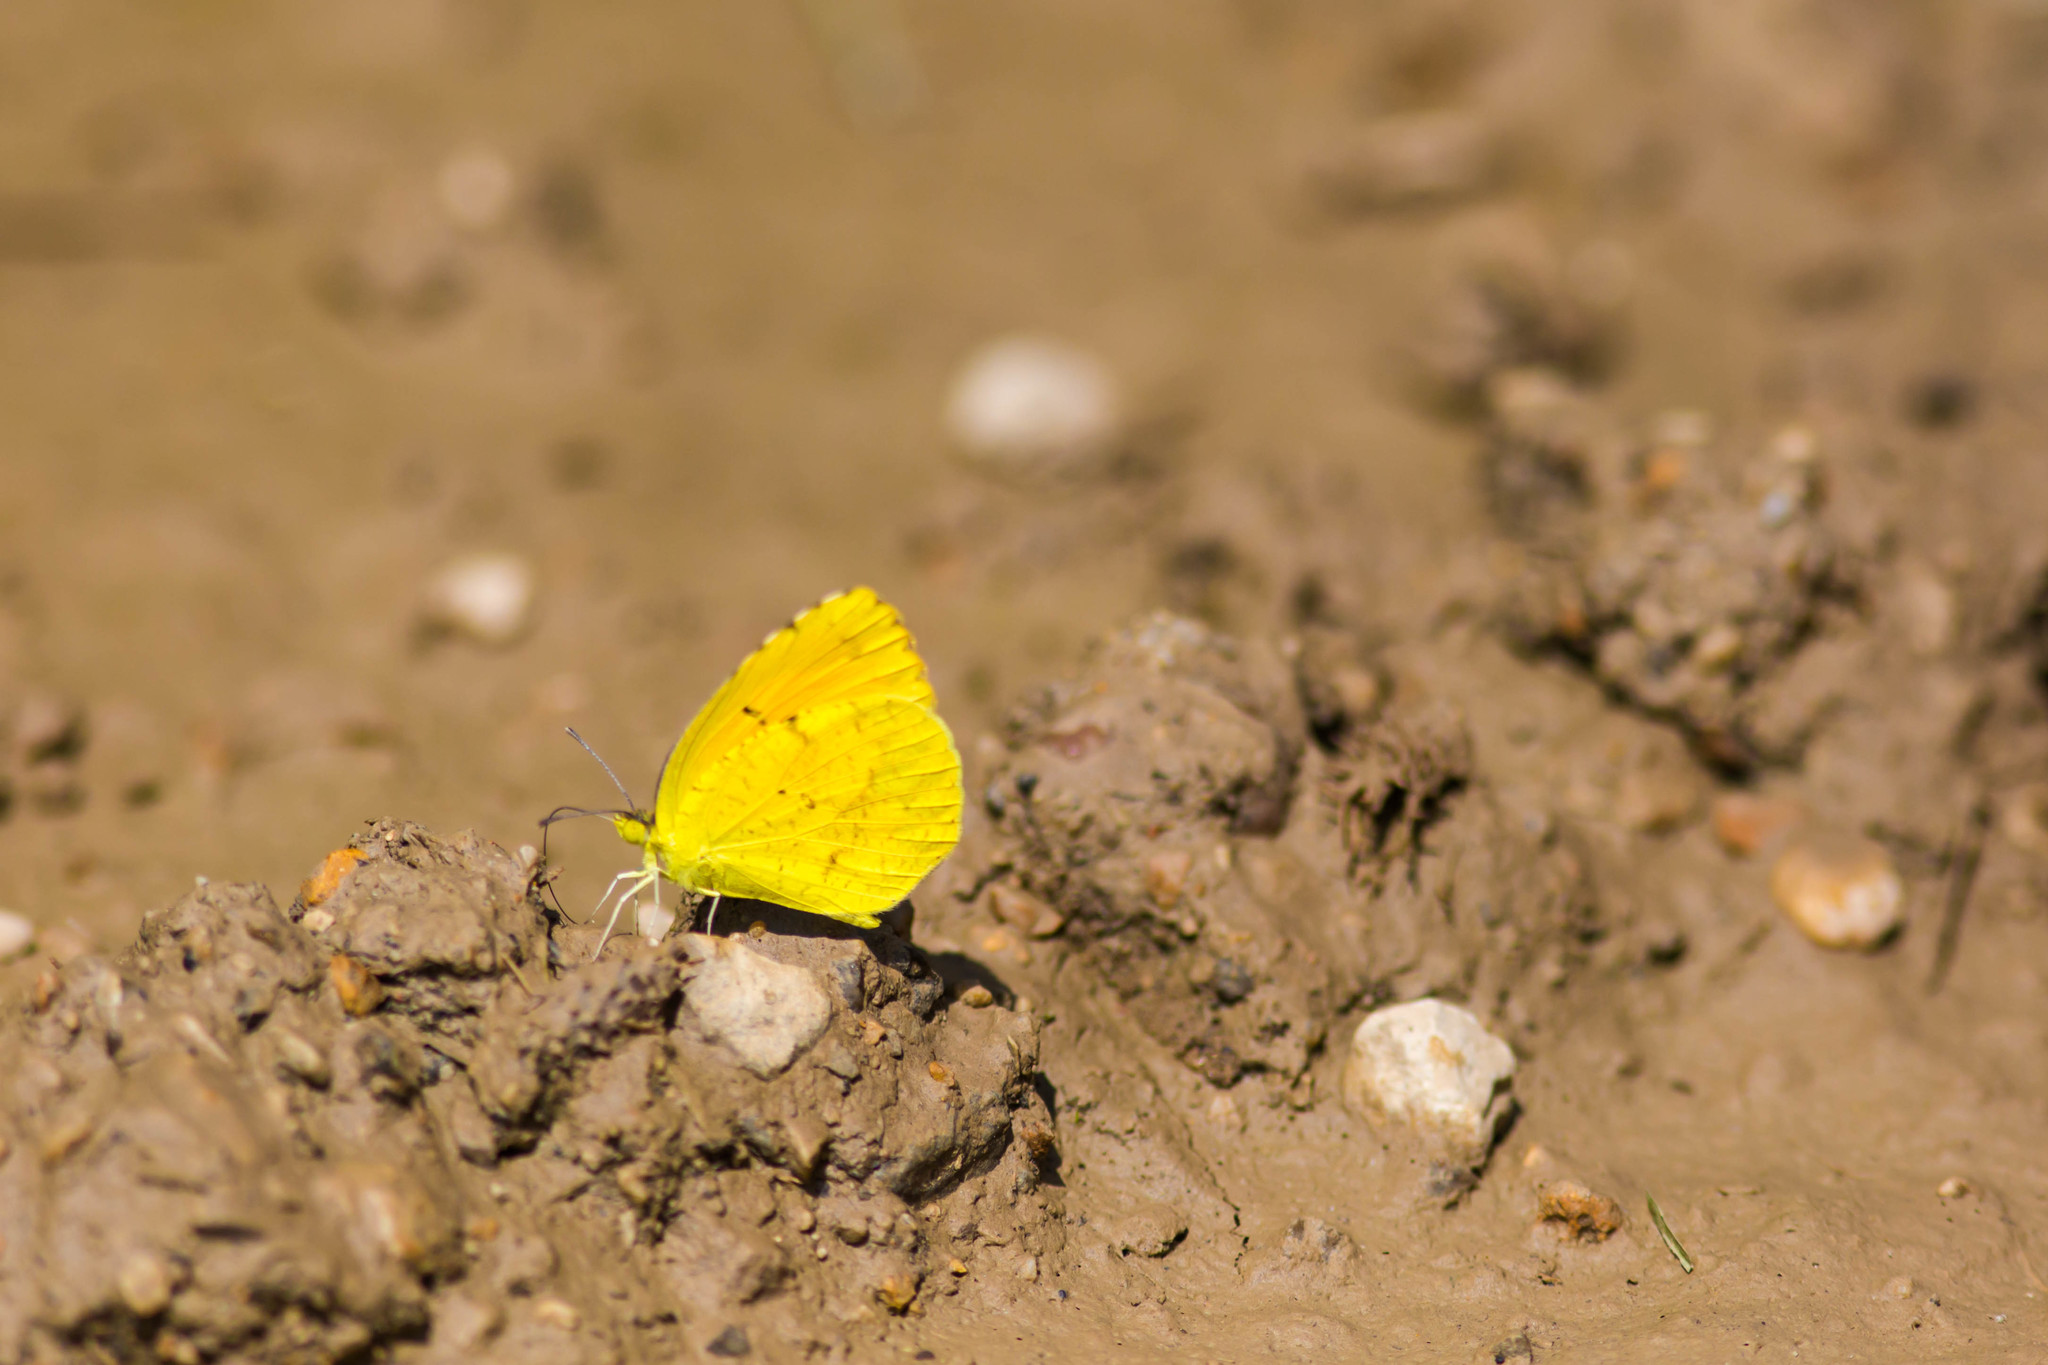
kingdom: Animalia
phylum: Arthropoda
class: Insecta
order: Lepidoptera
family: Pieridae
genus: Abaeis
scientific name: Abaeis nicippe
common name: Sleepy orange
